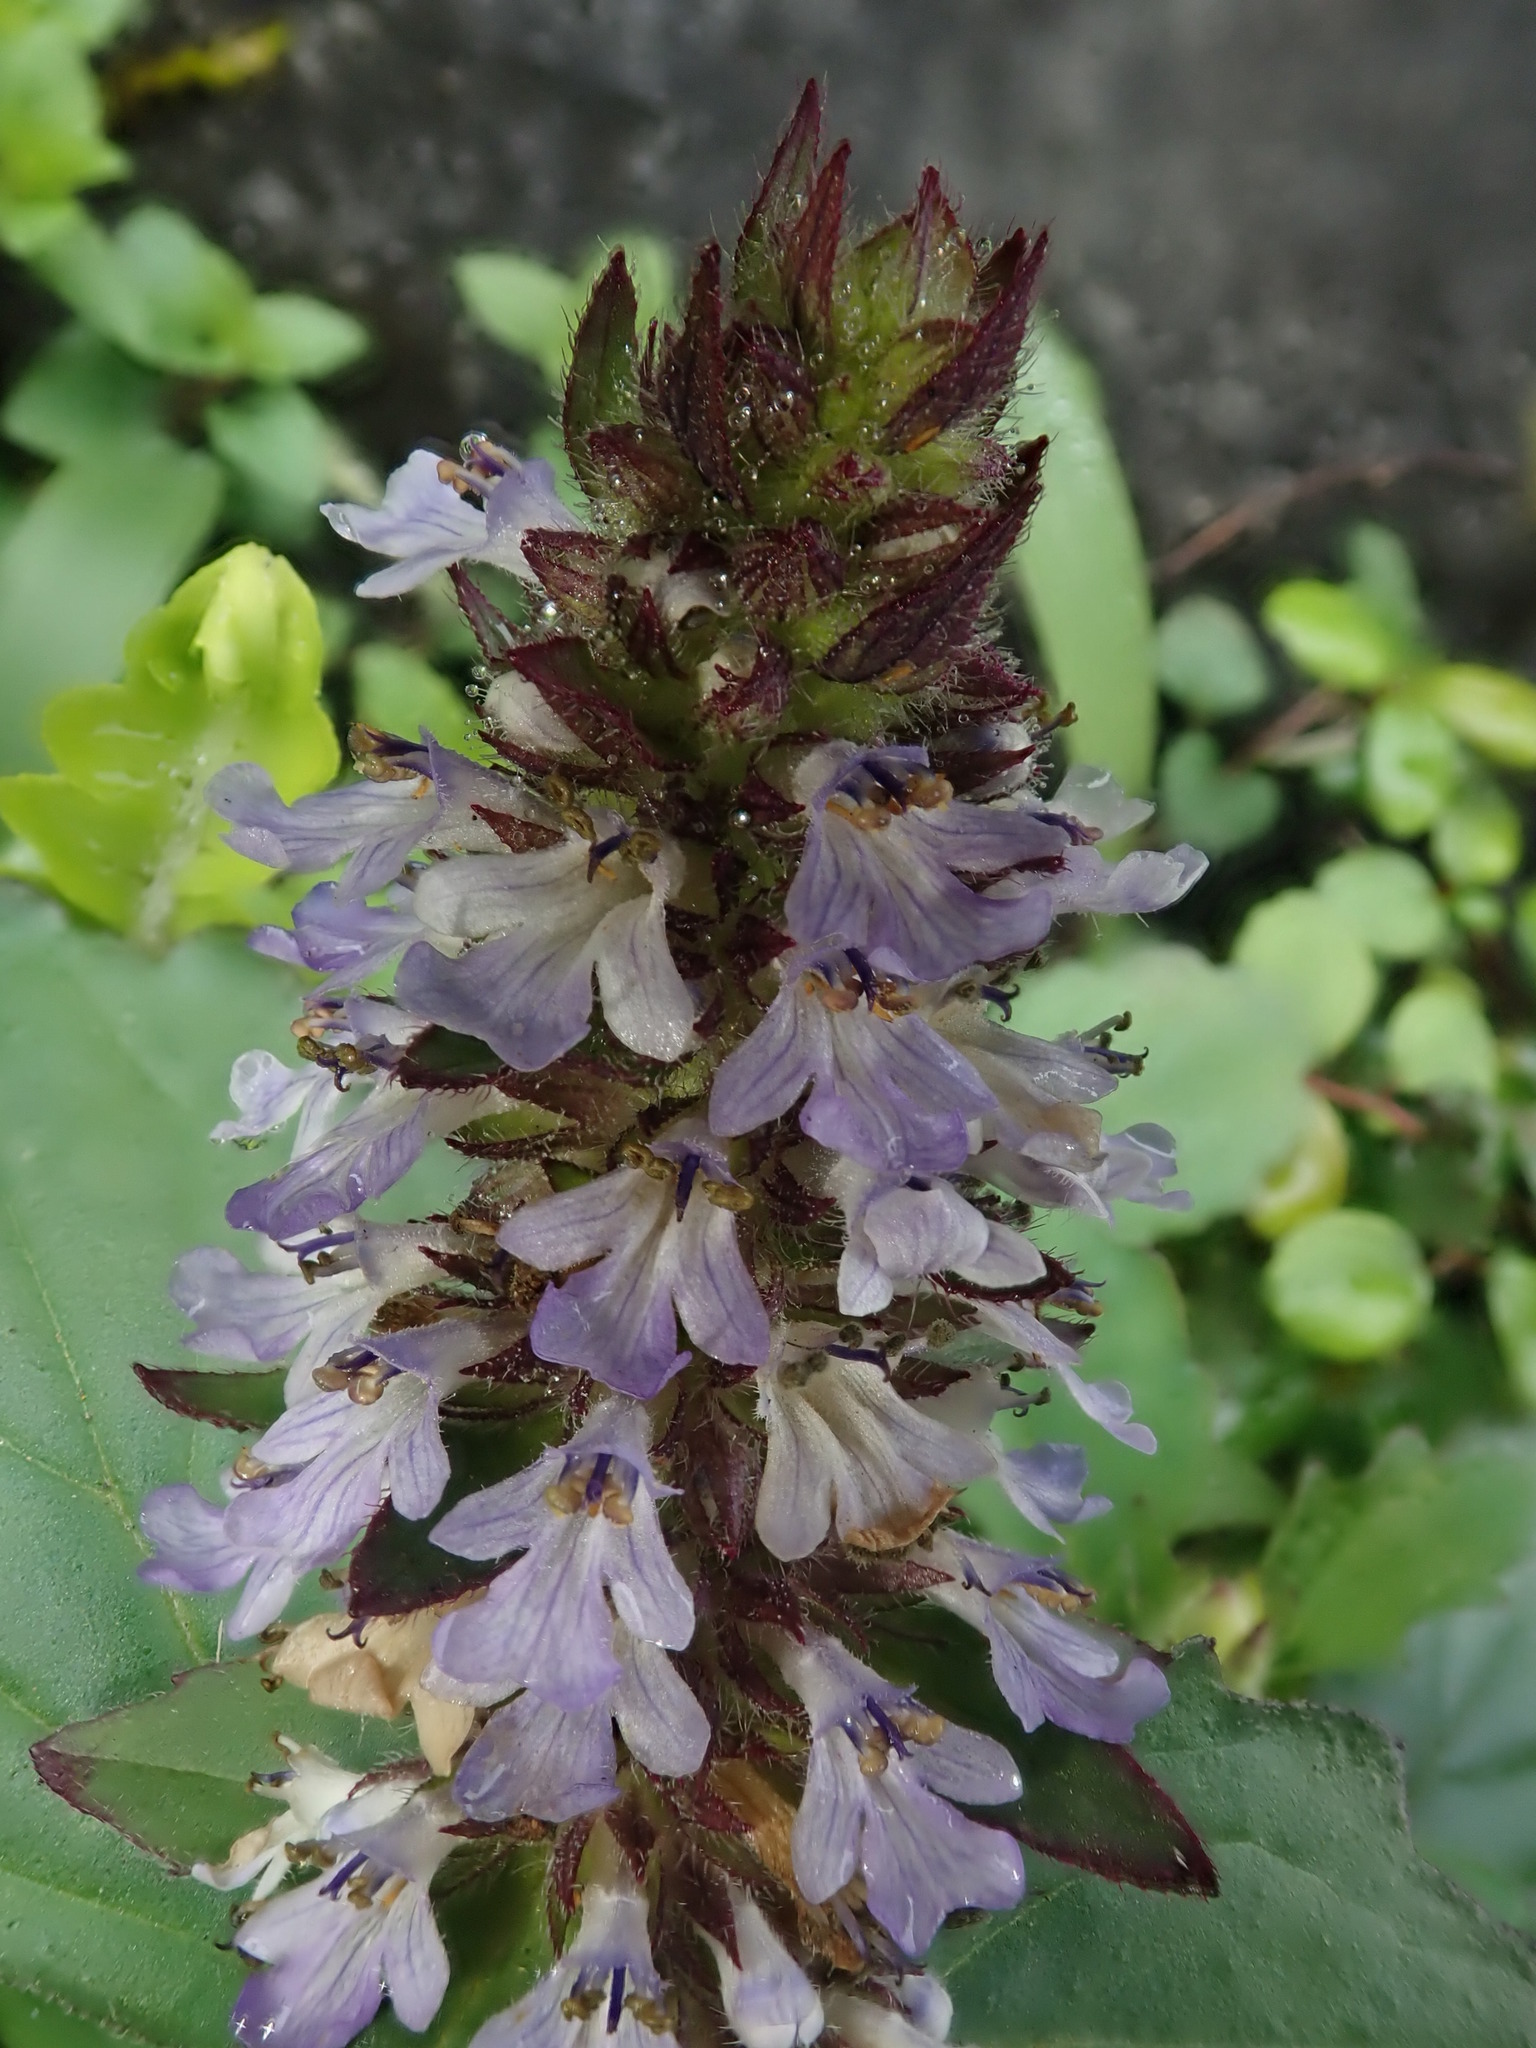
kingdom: Plantae
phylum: Tracheophyta
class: Magnoliopsida
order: Lamiales
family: Lamiaceae
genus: Ajuga
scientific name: Ajuga reptans
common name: Bugle
